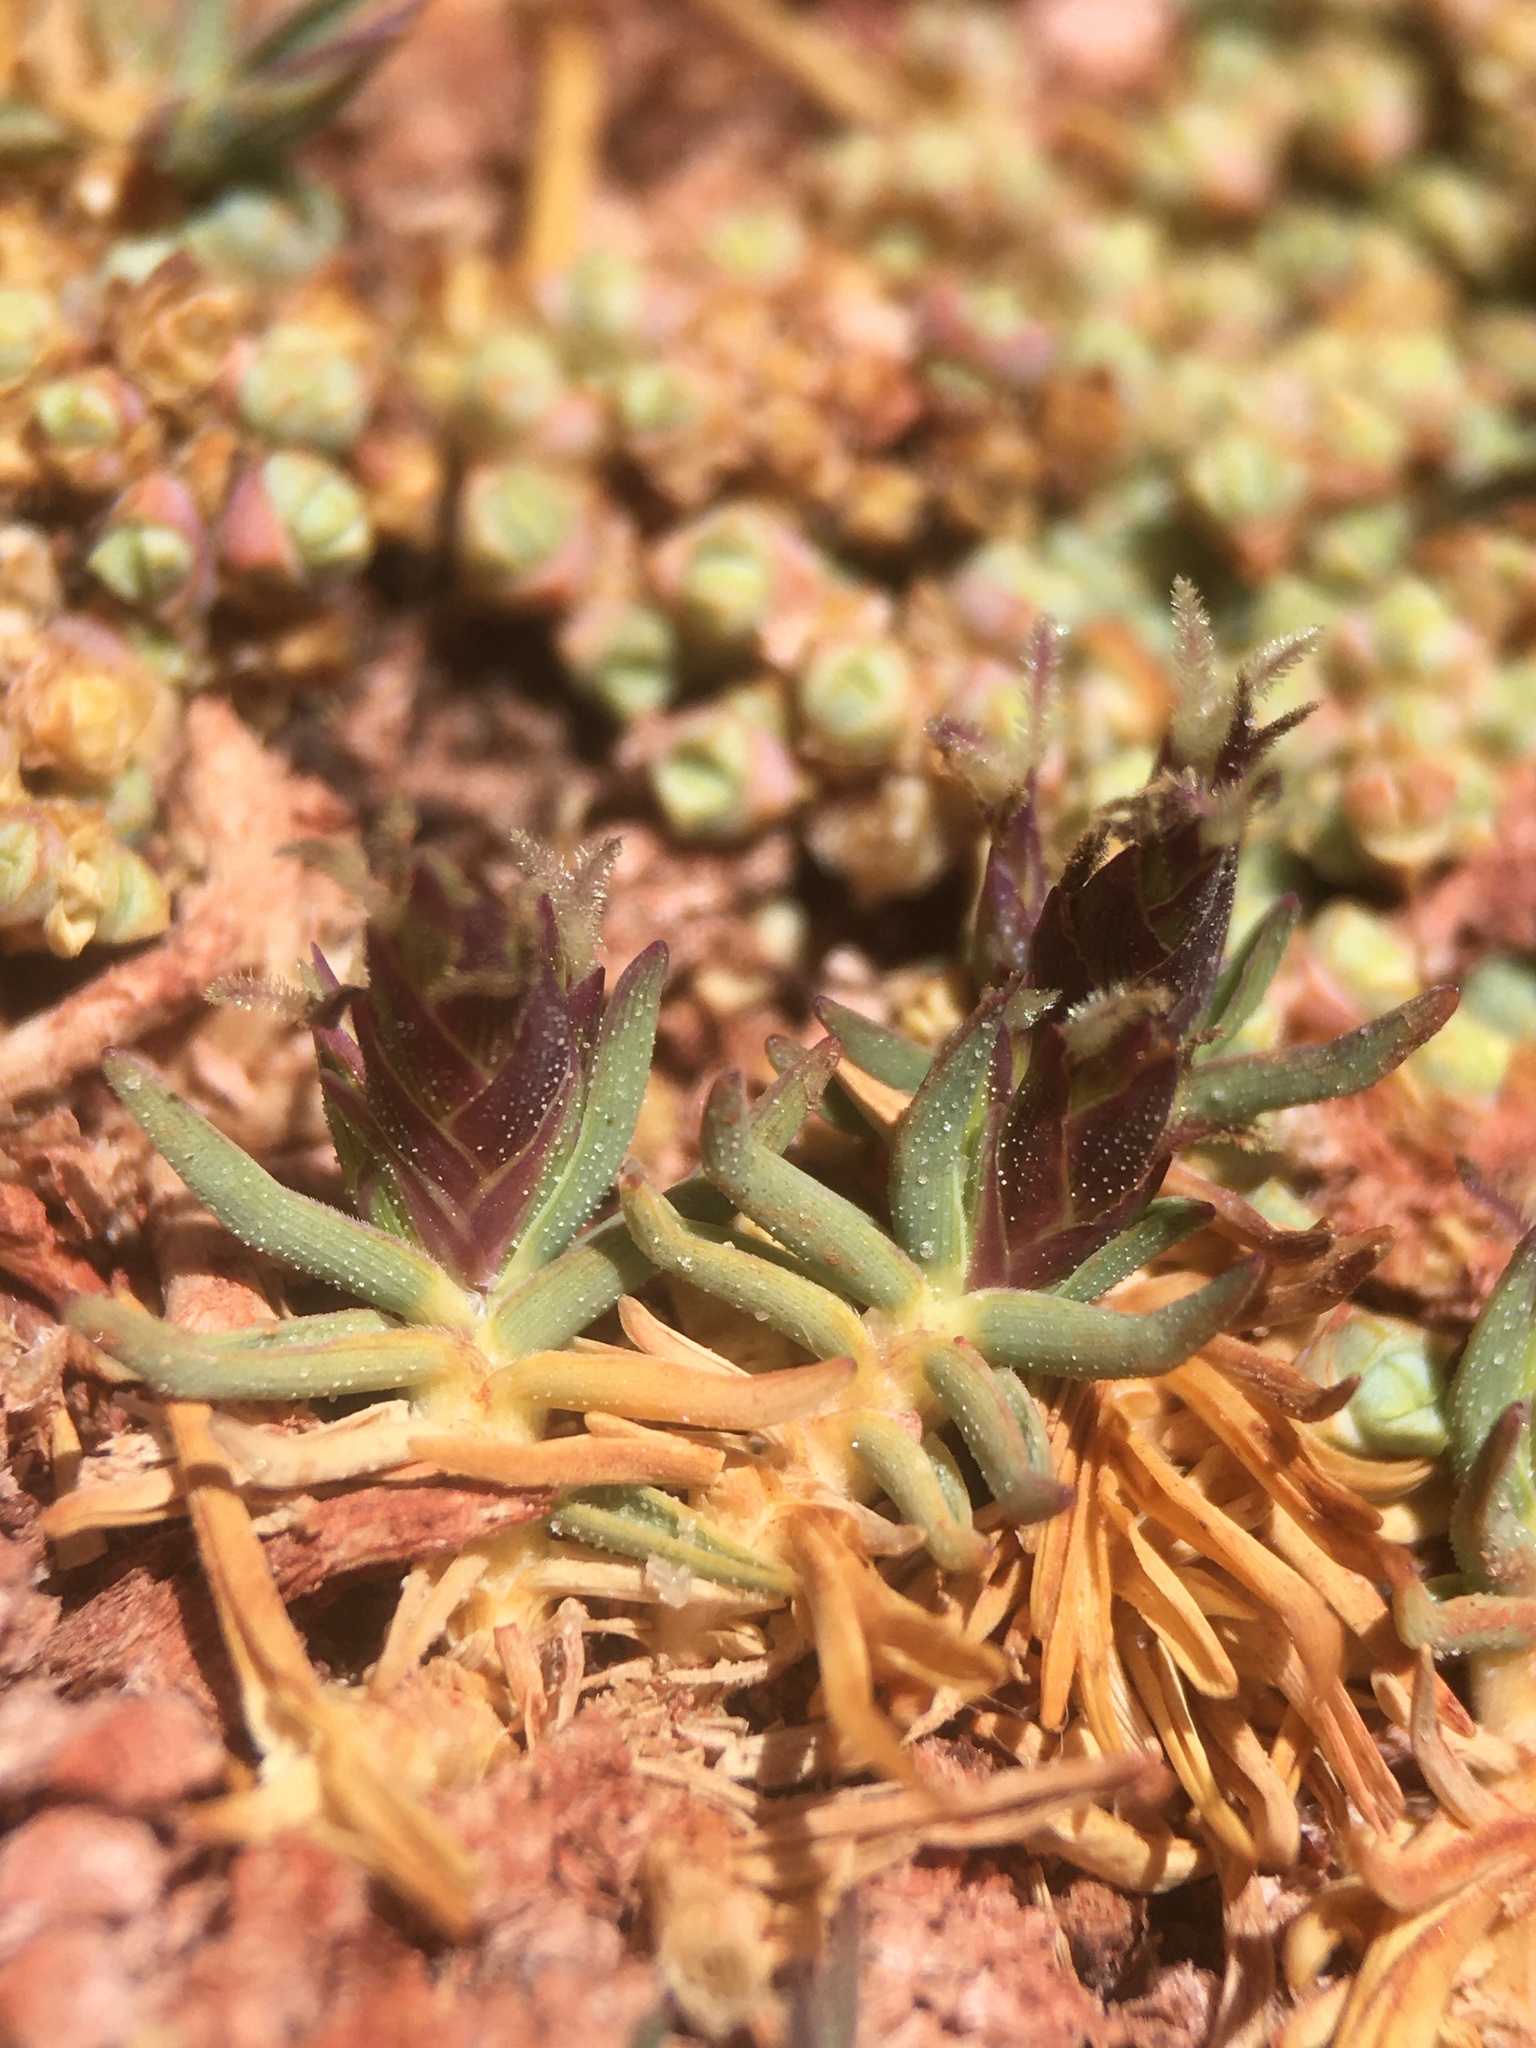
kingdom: Plantae
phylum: Tracheophyta
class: Liliopsida
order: Poales
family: Poaceae
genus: Distichlis
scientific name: Distichlis humilis
